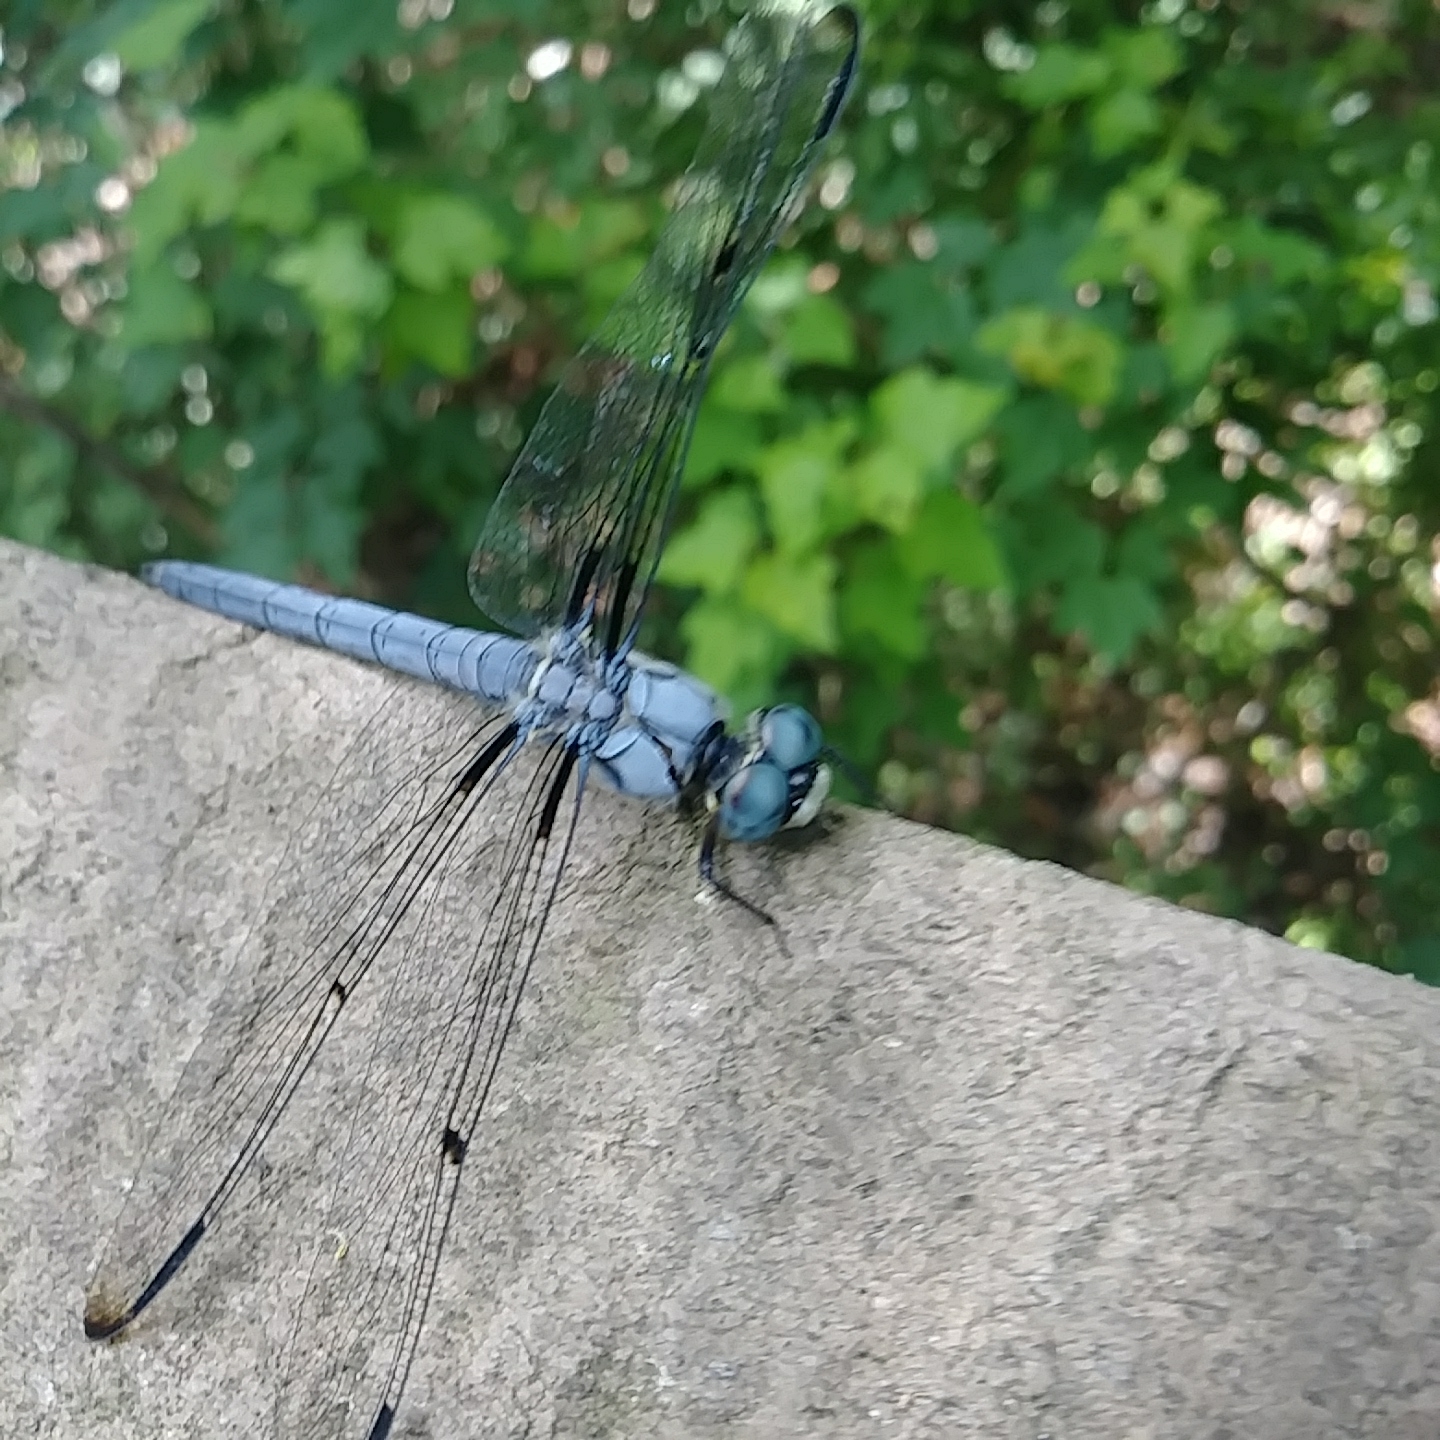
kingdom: Animalia
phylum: Arthropoda
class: Insecta
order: Odonata
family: Libellulidae
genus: Libellula
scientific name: Libellula vibrans
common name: Great blue skimmer
